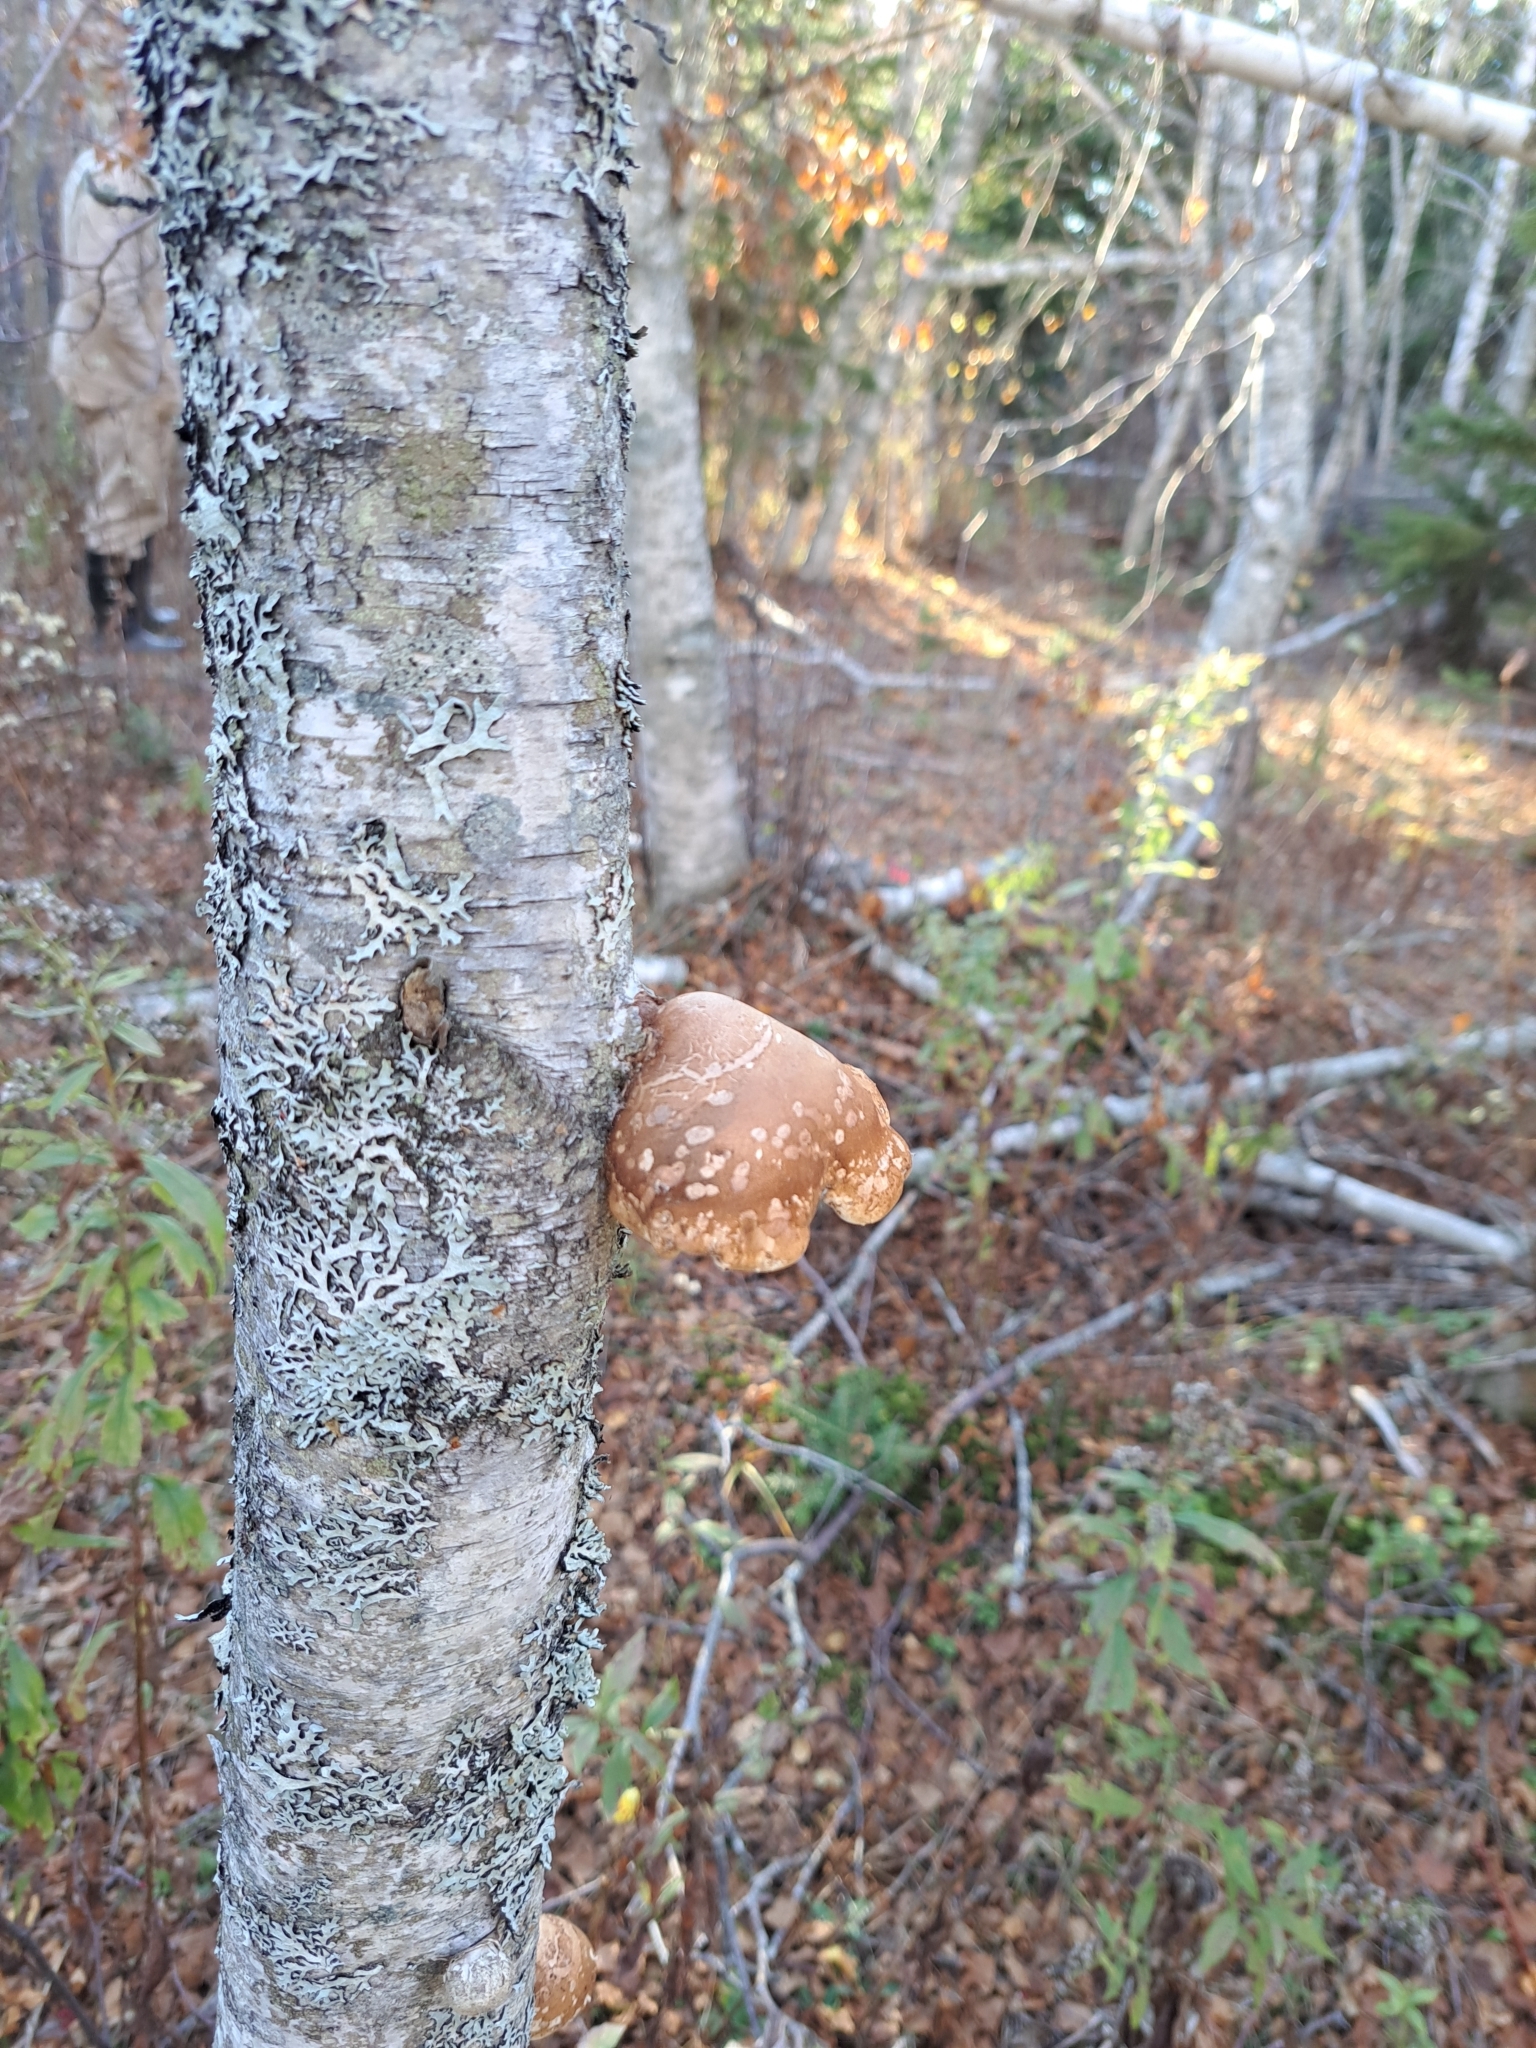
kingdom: Fungi
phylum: Basidiomycota
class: Agaricomycetes
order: Polyporales
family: Fomitopsidaceae
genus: Fomitopsis
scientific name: Fomitopsis betulina
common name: Birch polypore
